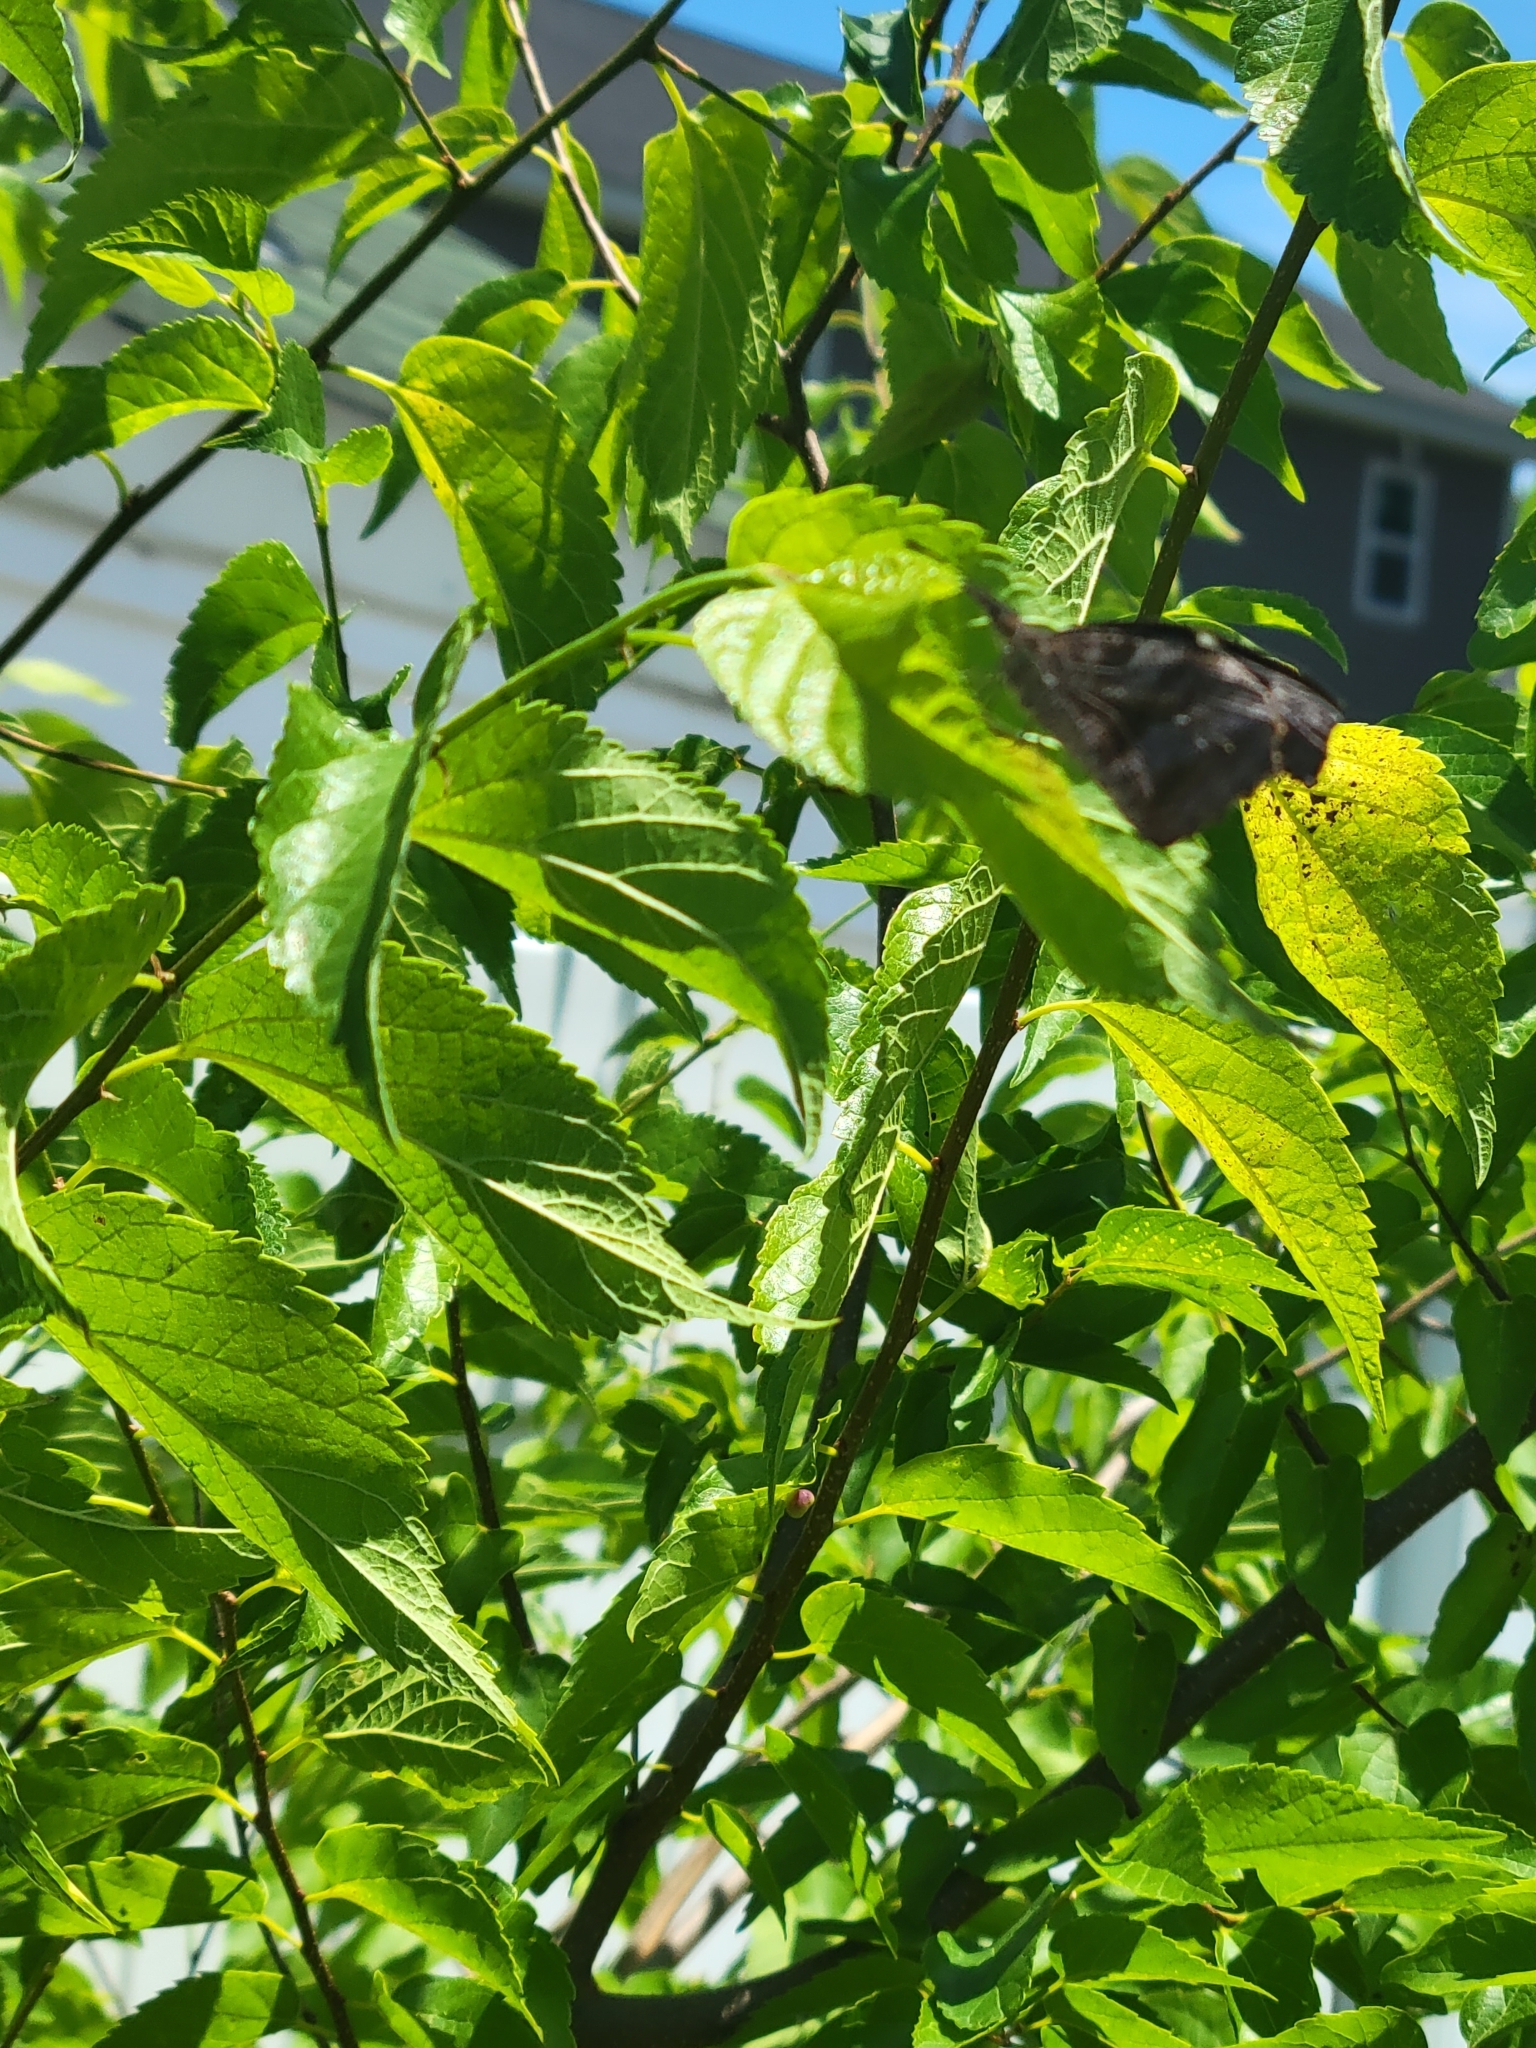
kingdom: Animalia
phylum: Arthropoda
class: Insecta
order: Lepidoptera
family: Nymphalidae
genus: Libytheana
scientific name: Libytheana carinenta
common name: American snout
